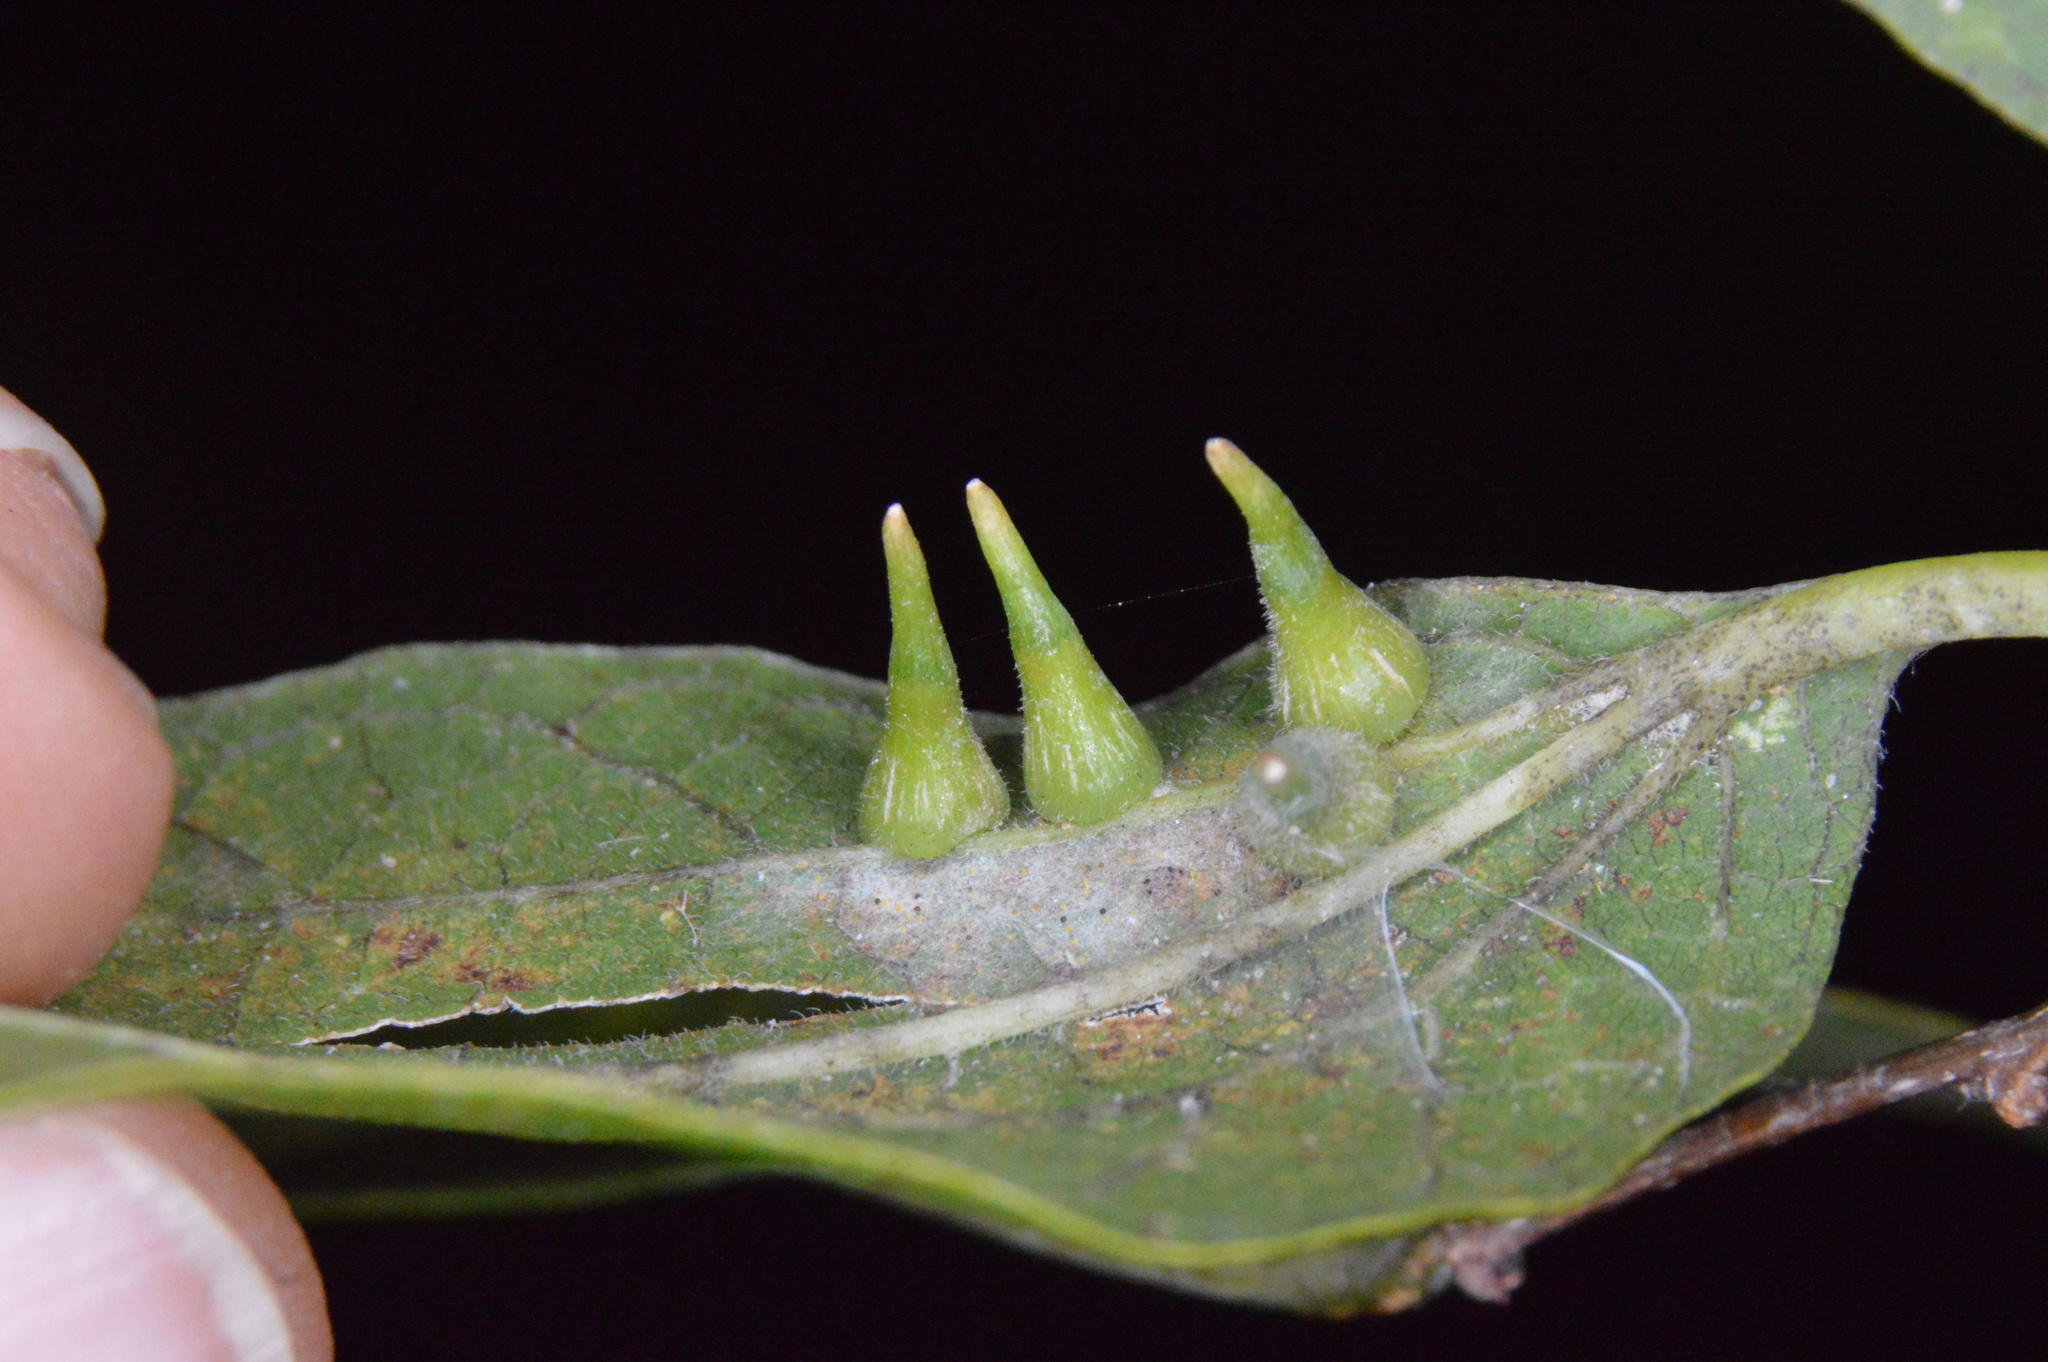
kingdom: Animalia
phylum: Arthropoda
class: Insecta
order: Diptera
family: Cecidomyiidae
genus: Celticecis
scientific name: Celticecis subulata
